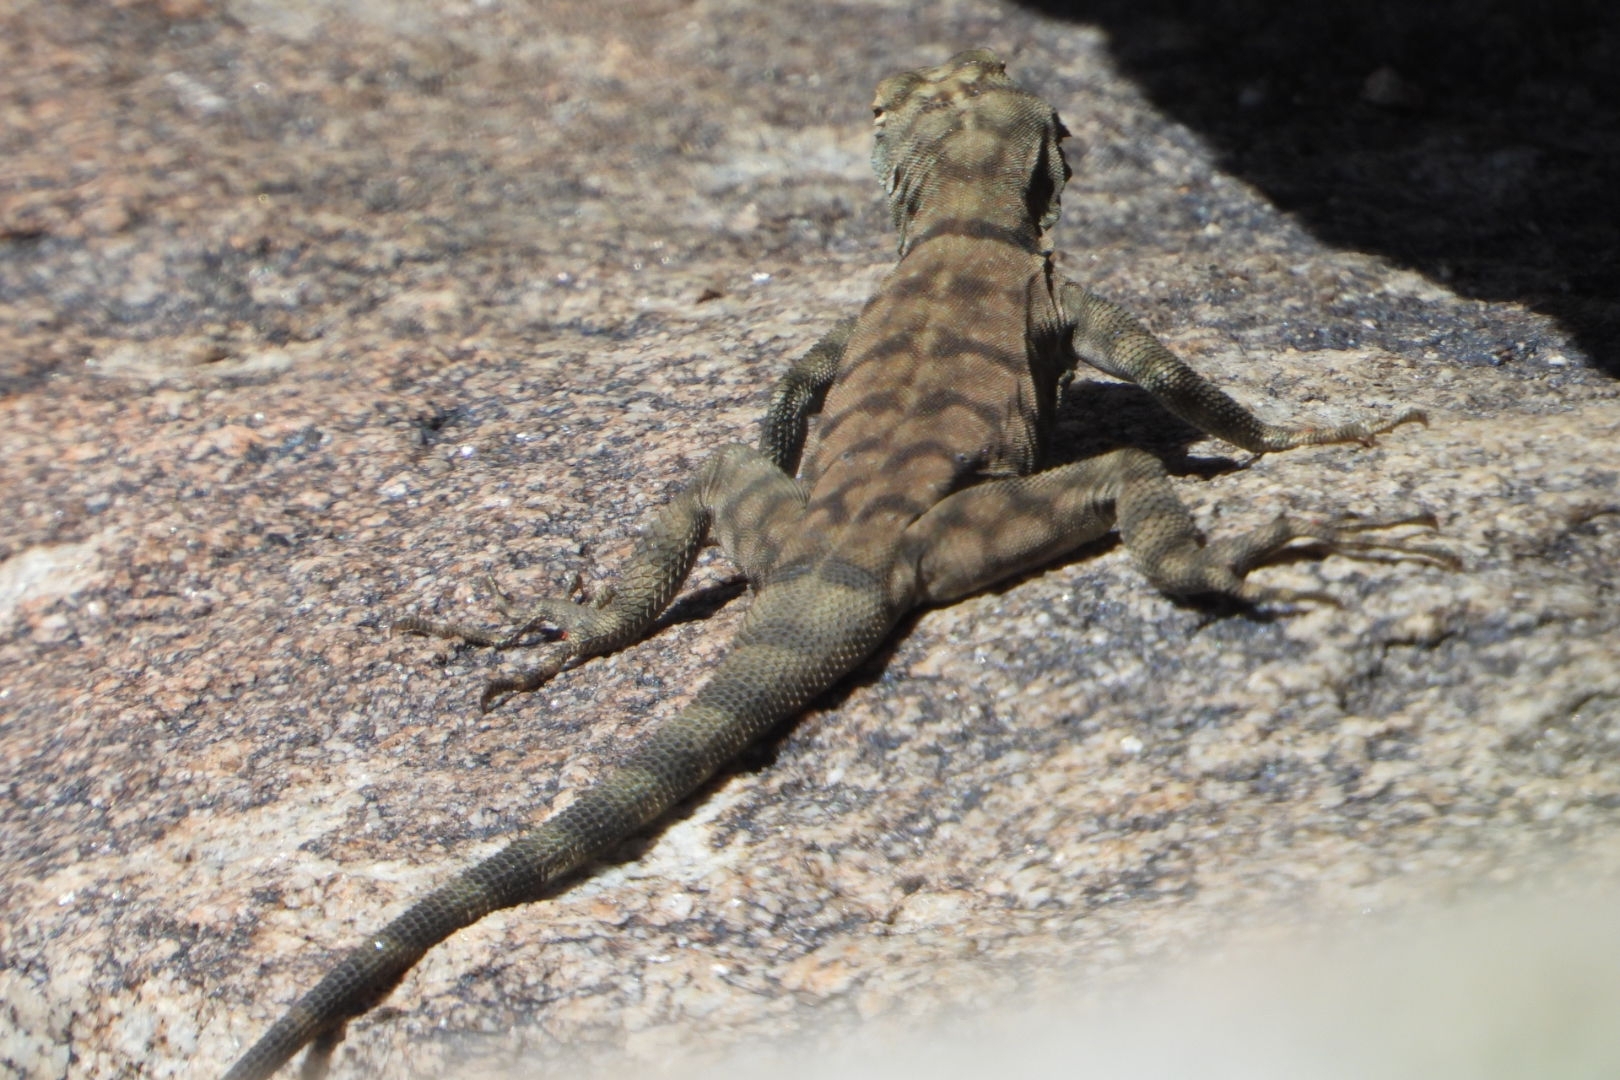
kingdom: Animalia
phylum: Chordata
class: Squamata
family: Phrynosomatidae
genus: Petrosaurus
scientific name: Petrosaurus mearnsi
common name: Banded rock lizard
